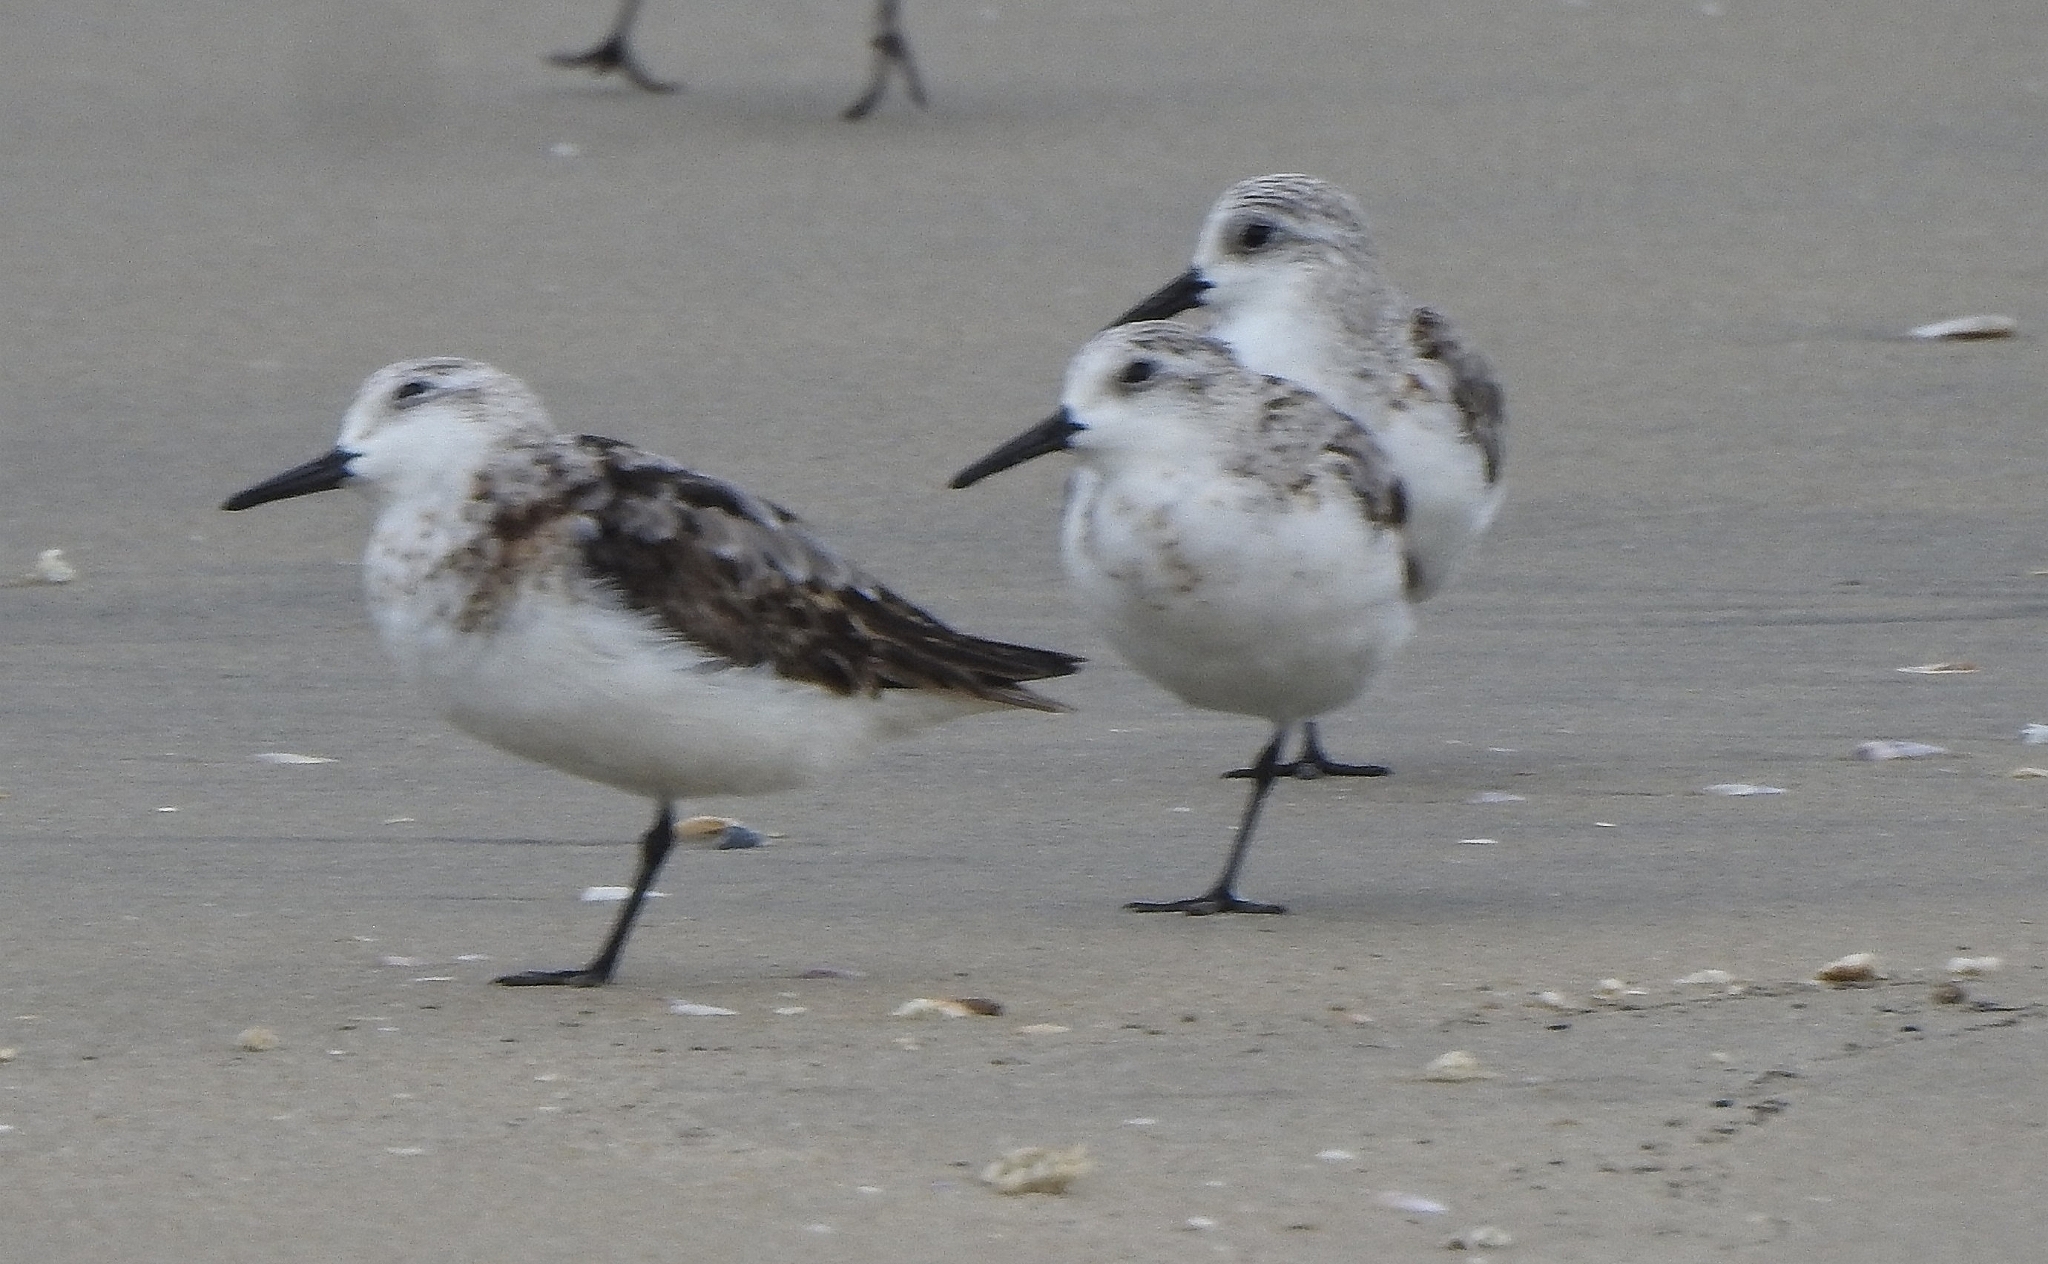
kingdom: Animalia
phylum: Chordata
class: Aves
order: Charadriiformes
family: Scolopacidae
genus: Calidris
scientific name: Calidris alba
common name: Sanderling
